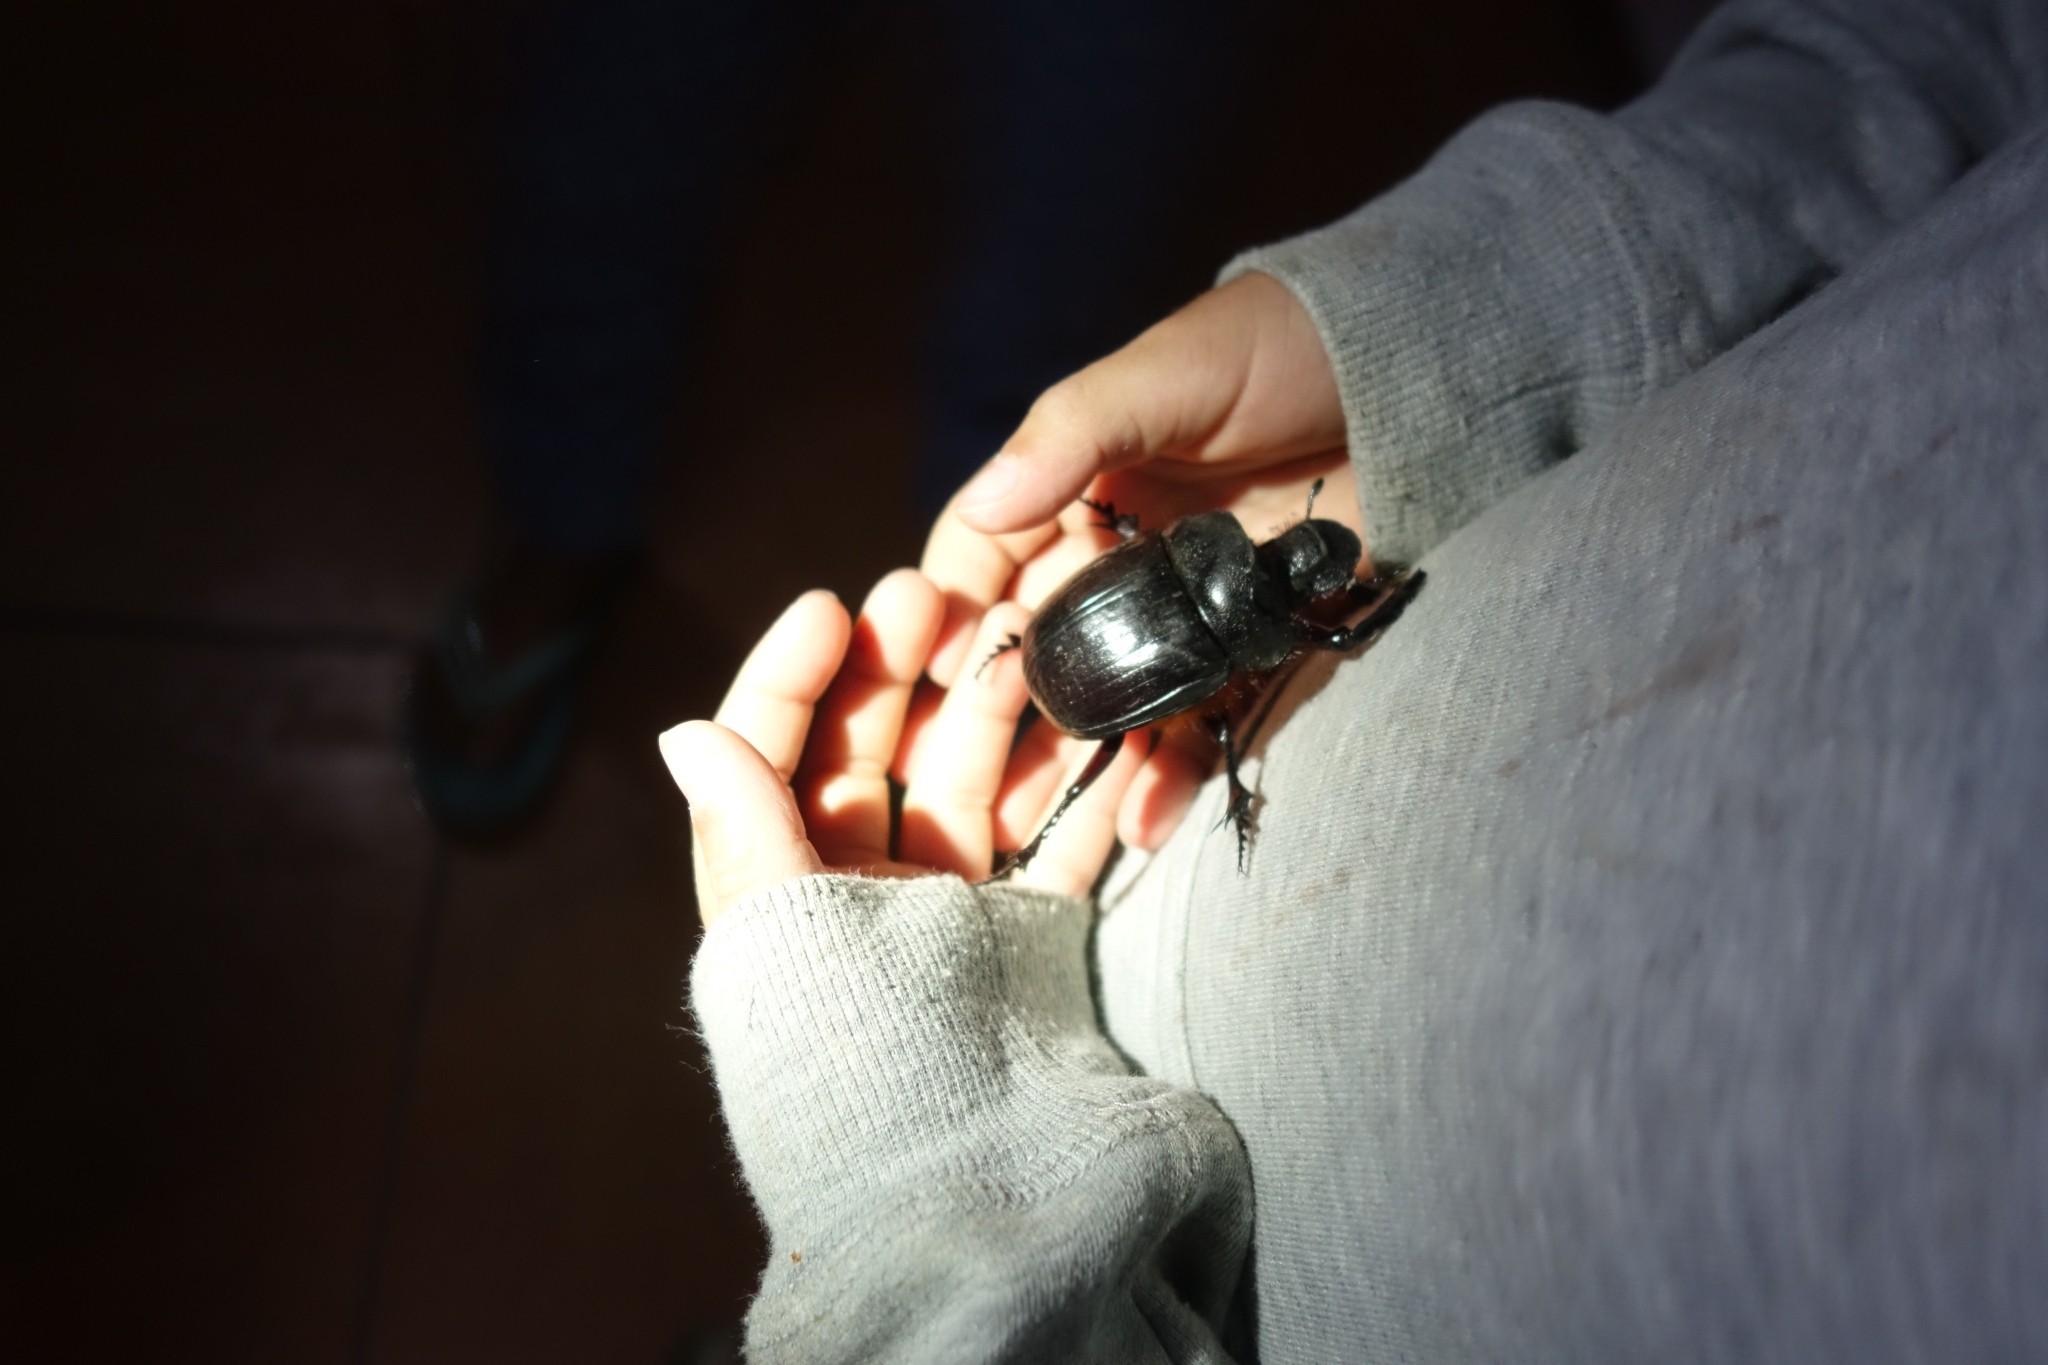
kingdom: Animalia
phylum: Arthropoda
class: Insecta
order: Coleoptera
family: Scarabaeidae
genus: Heliocopris
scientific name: Heliocopris japetus
